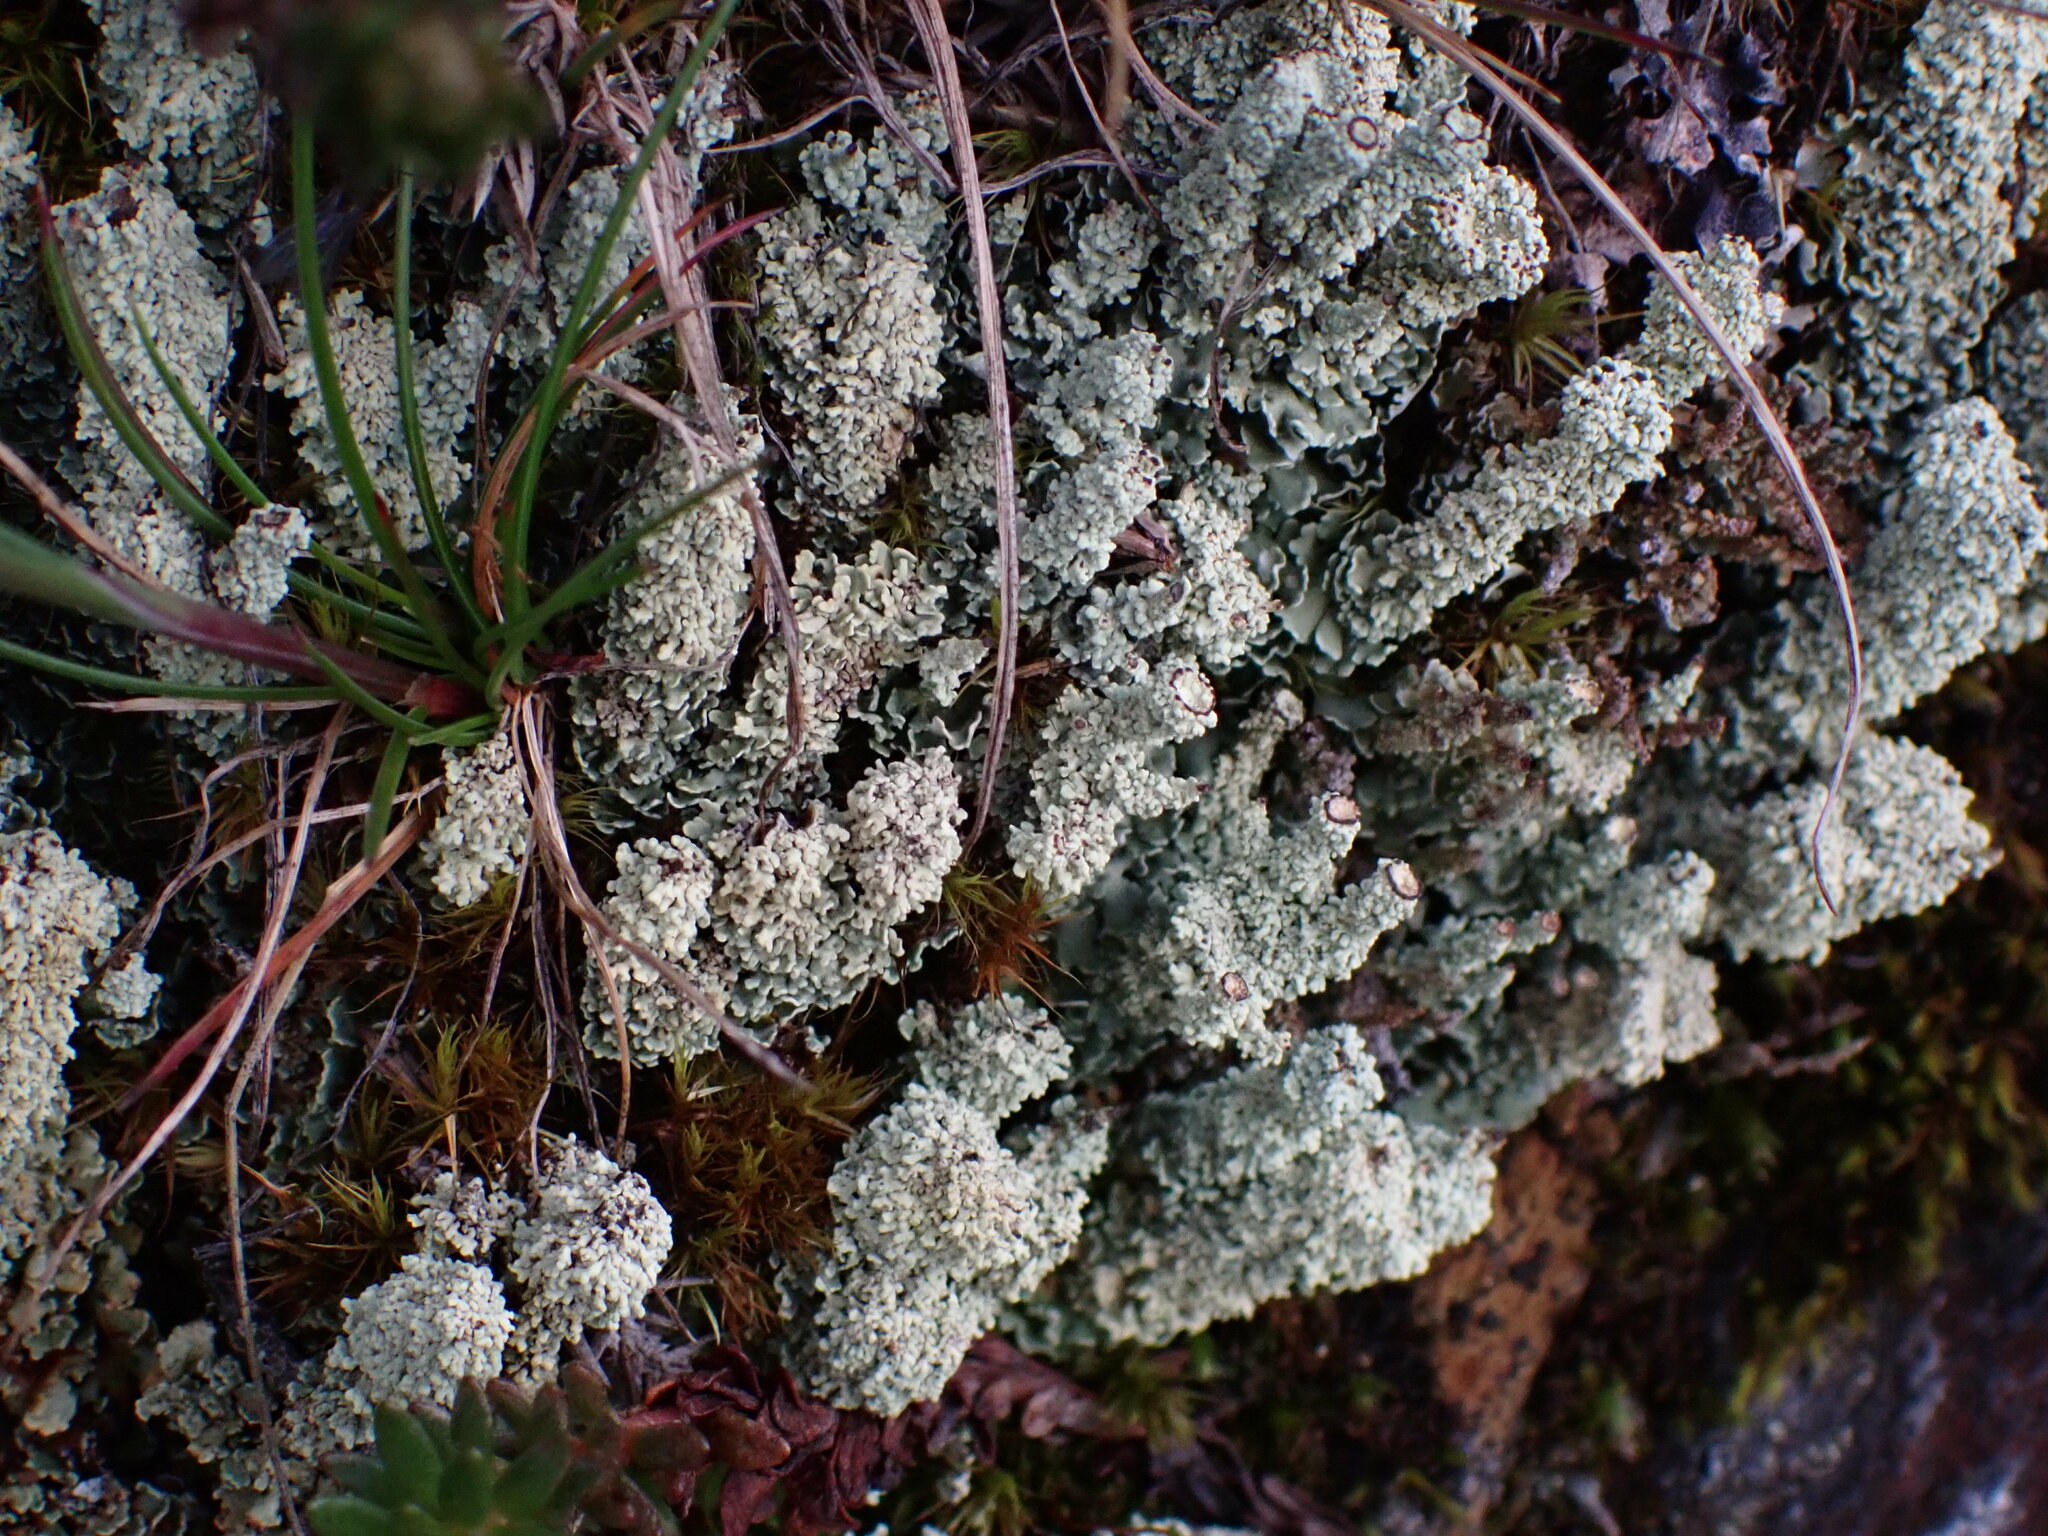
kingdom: Fungi
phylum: Ascomycota
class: Lecanoromycetes
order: Lecanorales
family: Cladoniaceae
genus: Cladonia
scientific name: Cladonia bellidiflora
